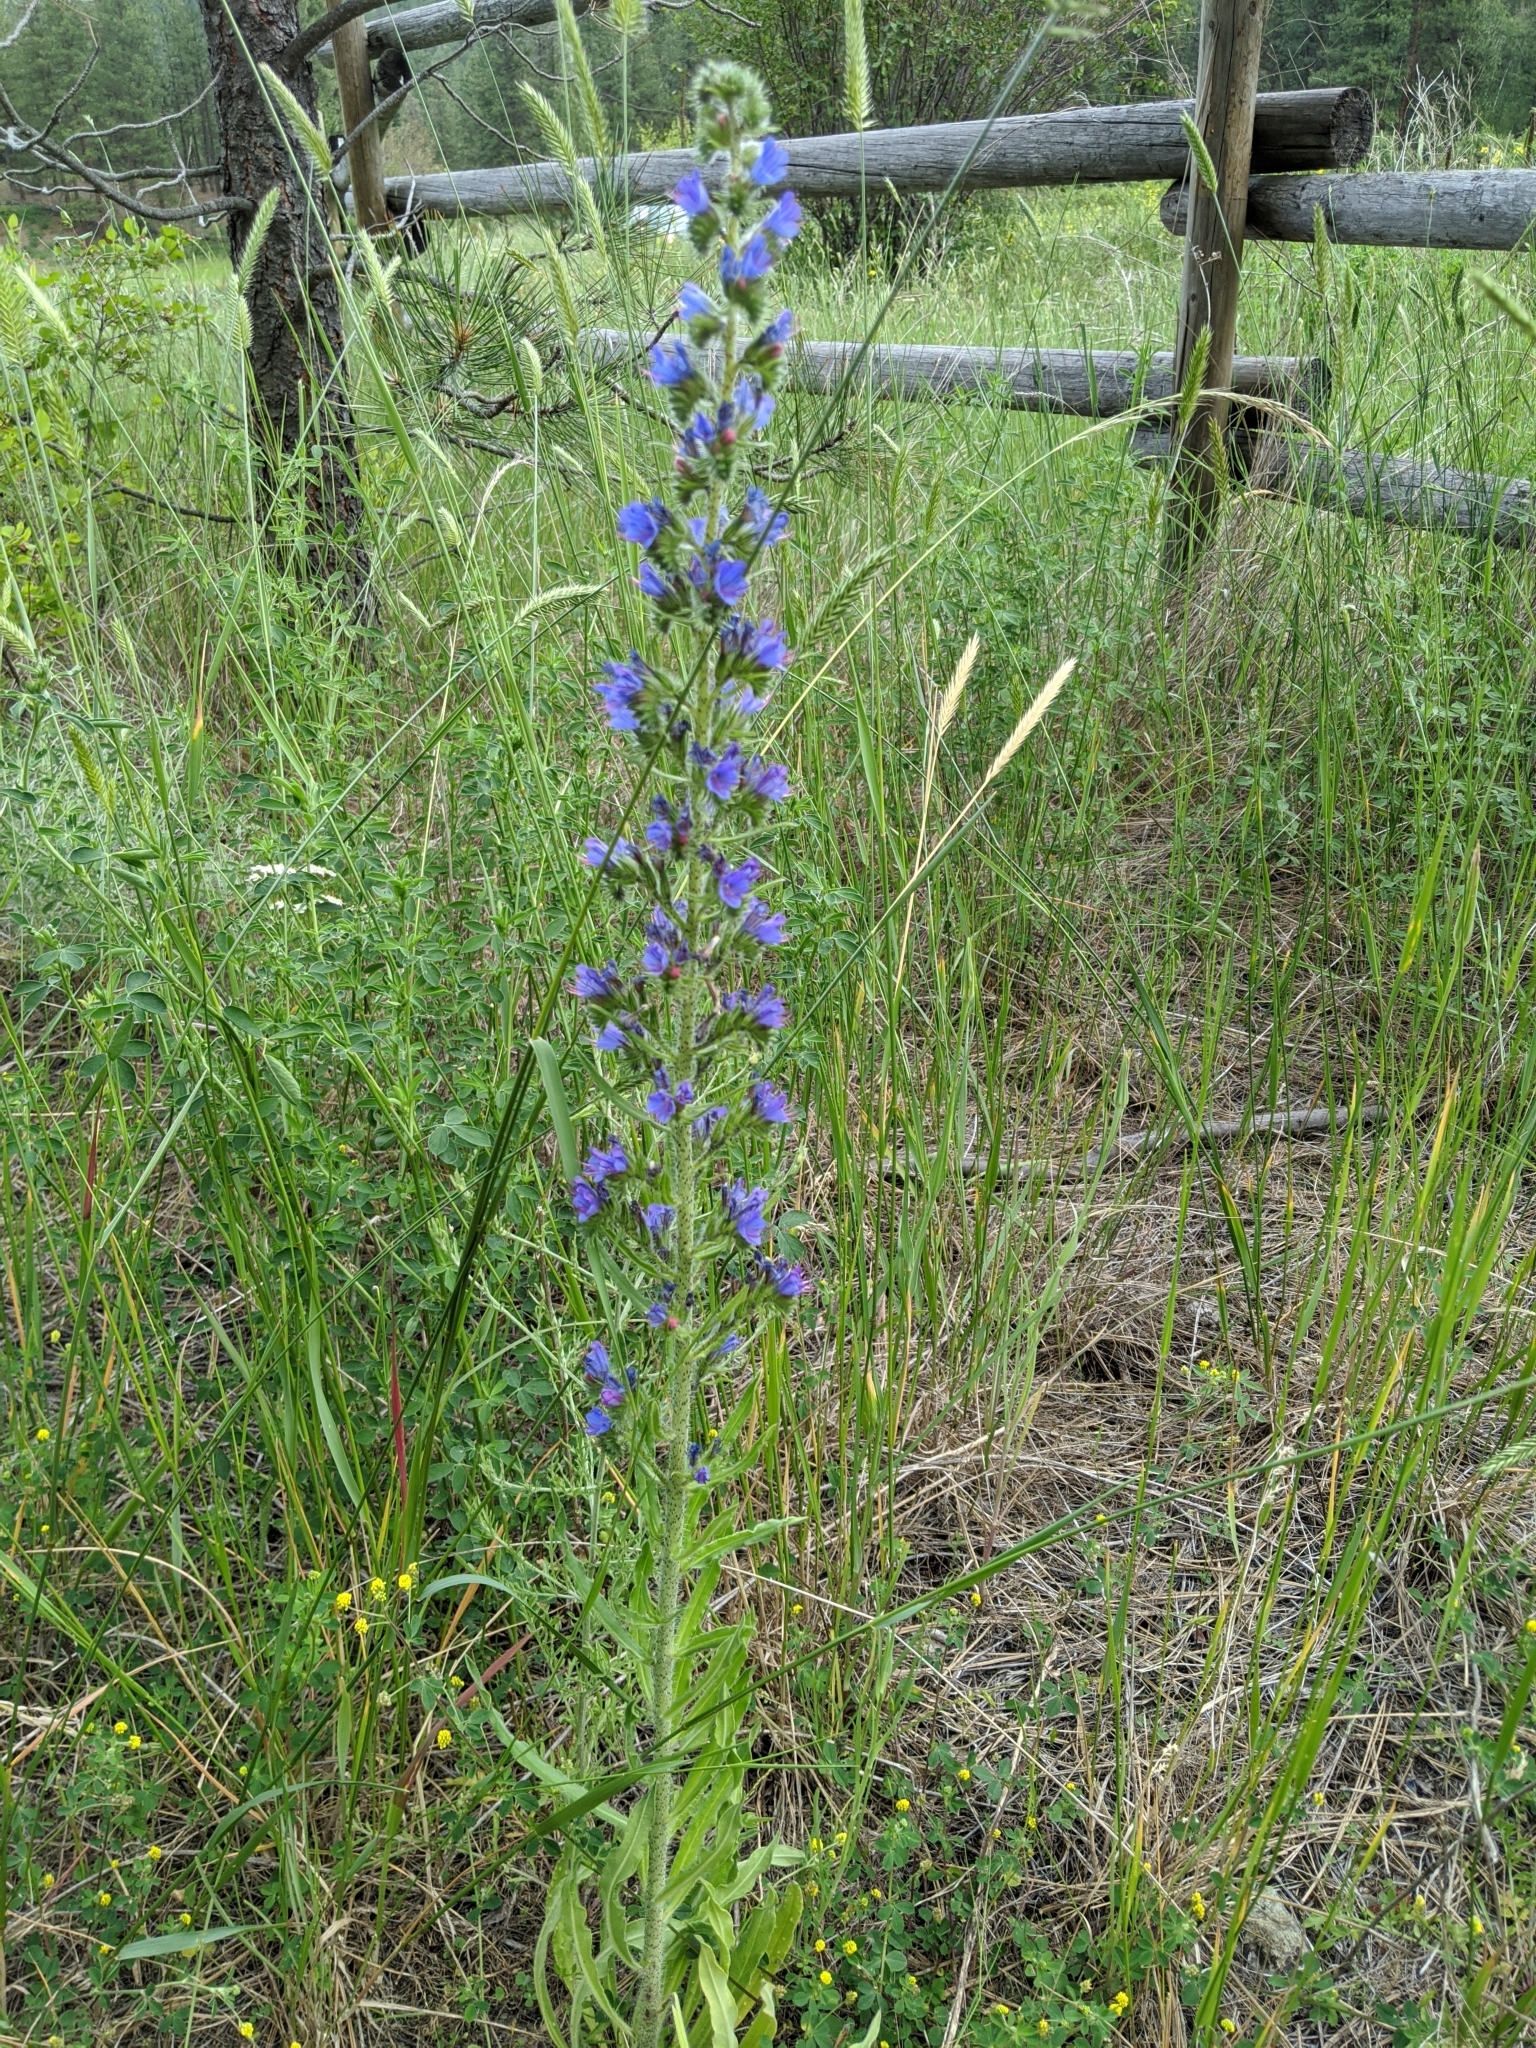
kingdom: Plantae
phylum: Tracheophyta
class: Magnoliopsida
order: Boraginales
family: Boraginaceae
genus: Echium
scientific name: Echium vulgare
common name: Common viper's bugloss
